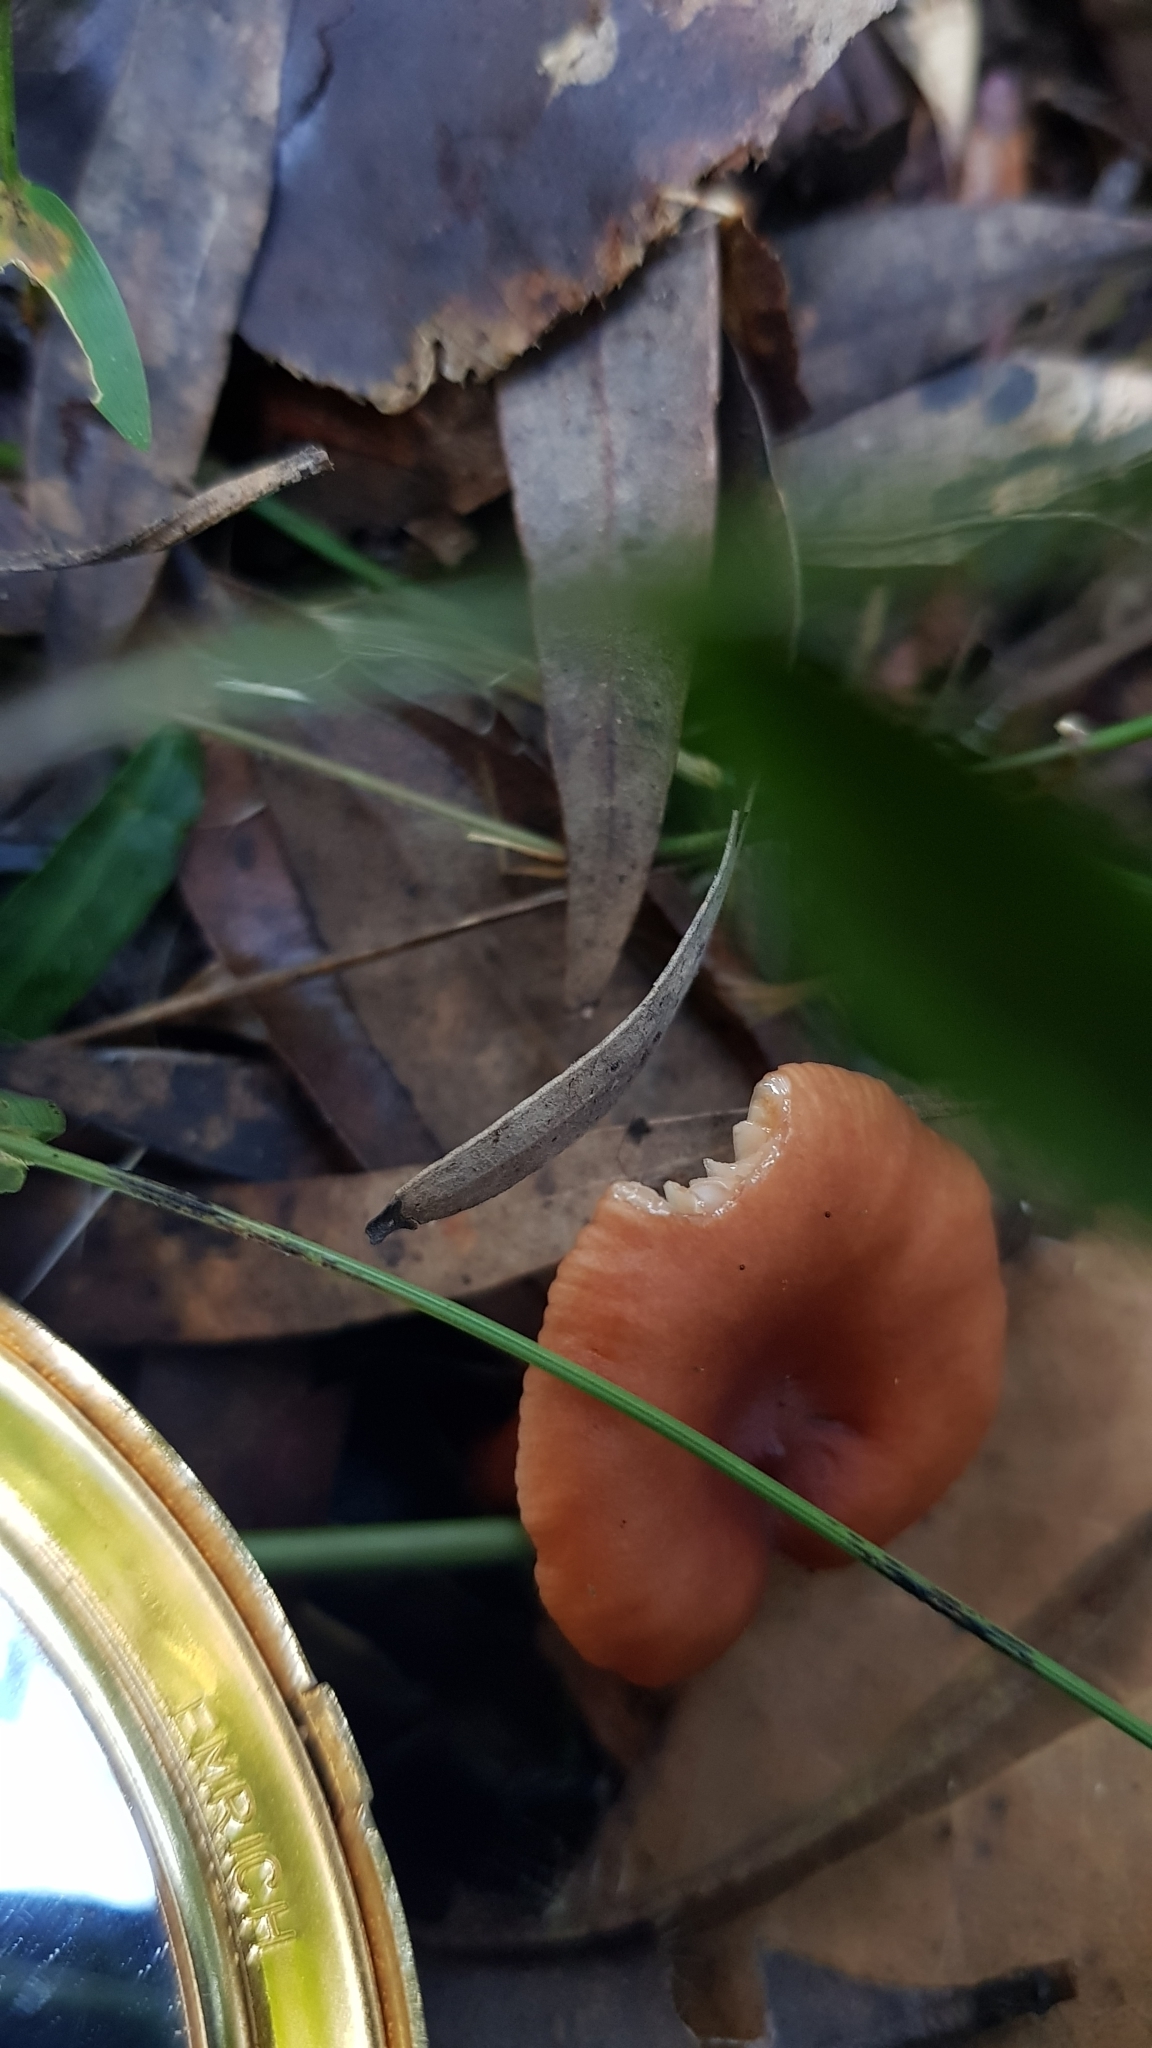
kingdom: Fungi
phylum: Basidiomycota
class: Agaricomycetes
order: Russulales
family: Russulaceae
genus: Lactarius
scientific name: Lactarius eucalypti
